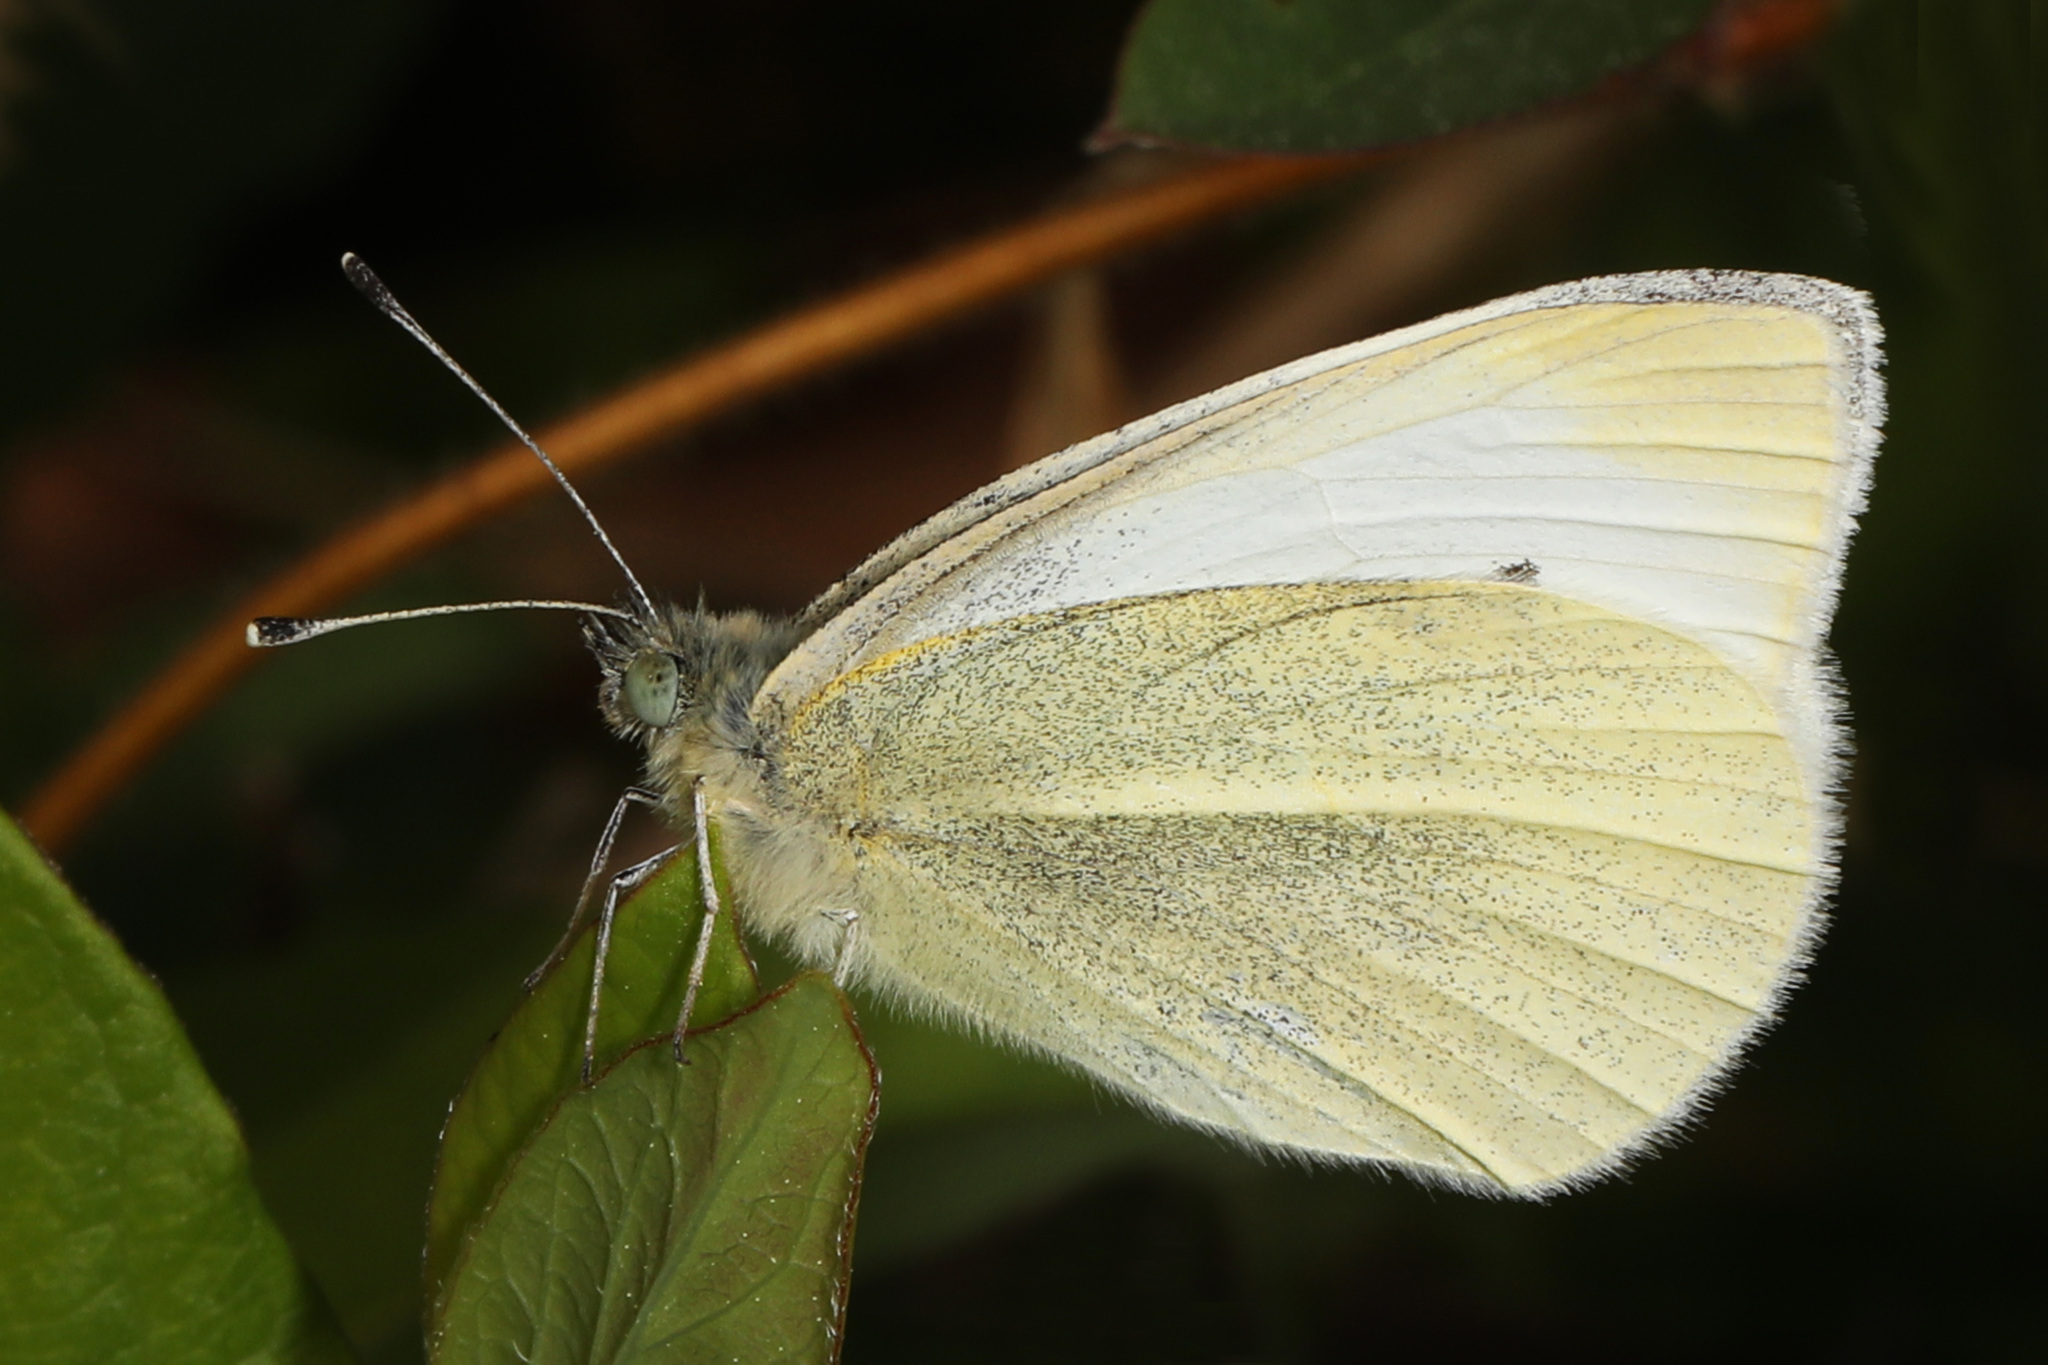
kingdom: Animalia
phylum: Arthropoda
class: Insecta
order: Lepidoptera
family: Pieridae
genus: Pieris
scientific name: Pieris rapae
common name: Small white
